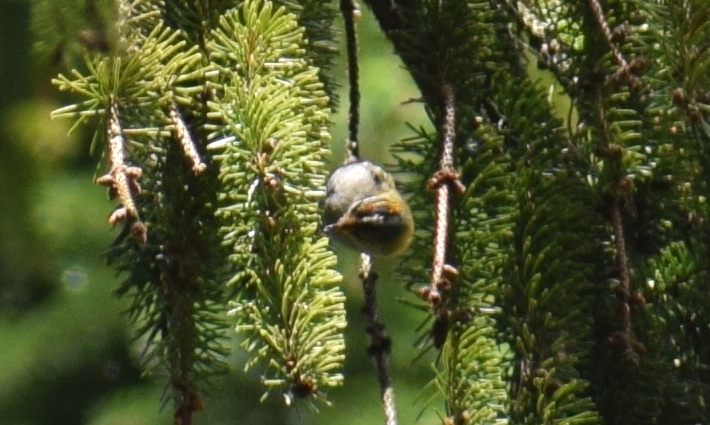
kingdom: Animalia
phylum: Chordata
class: Aves
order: Passeriformes
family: Regulidae
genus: Regulus
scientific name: Regulus ignicapilla
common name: Firecrest
